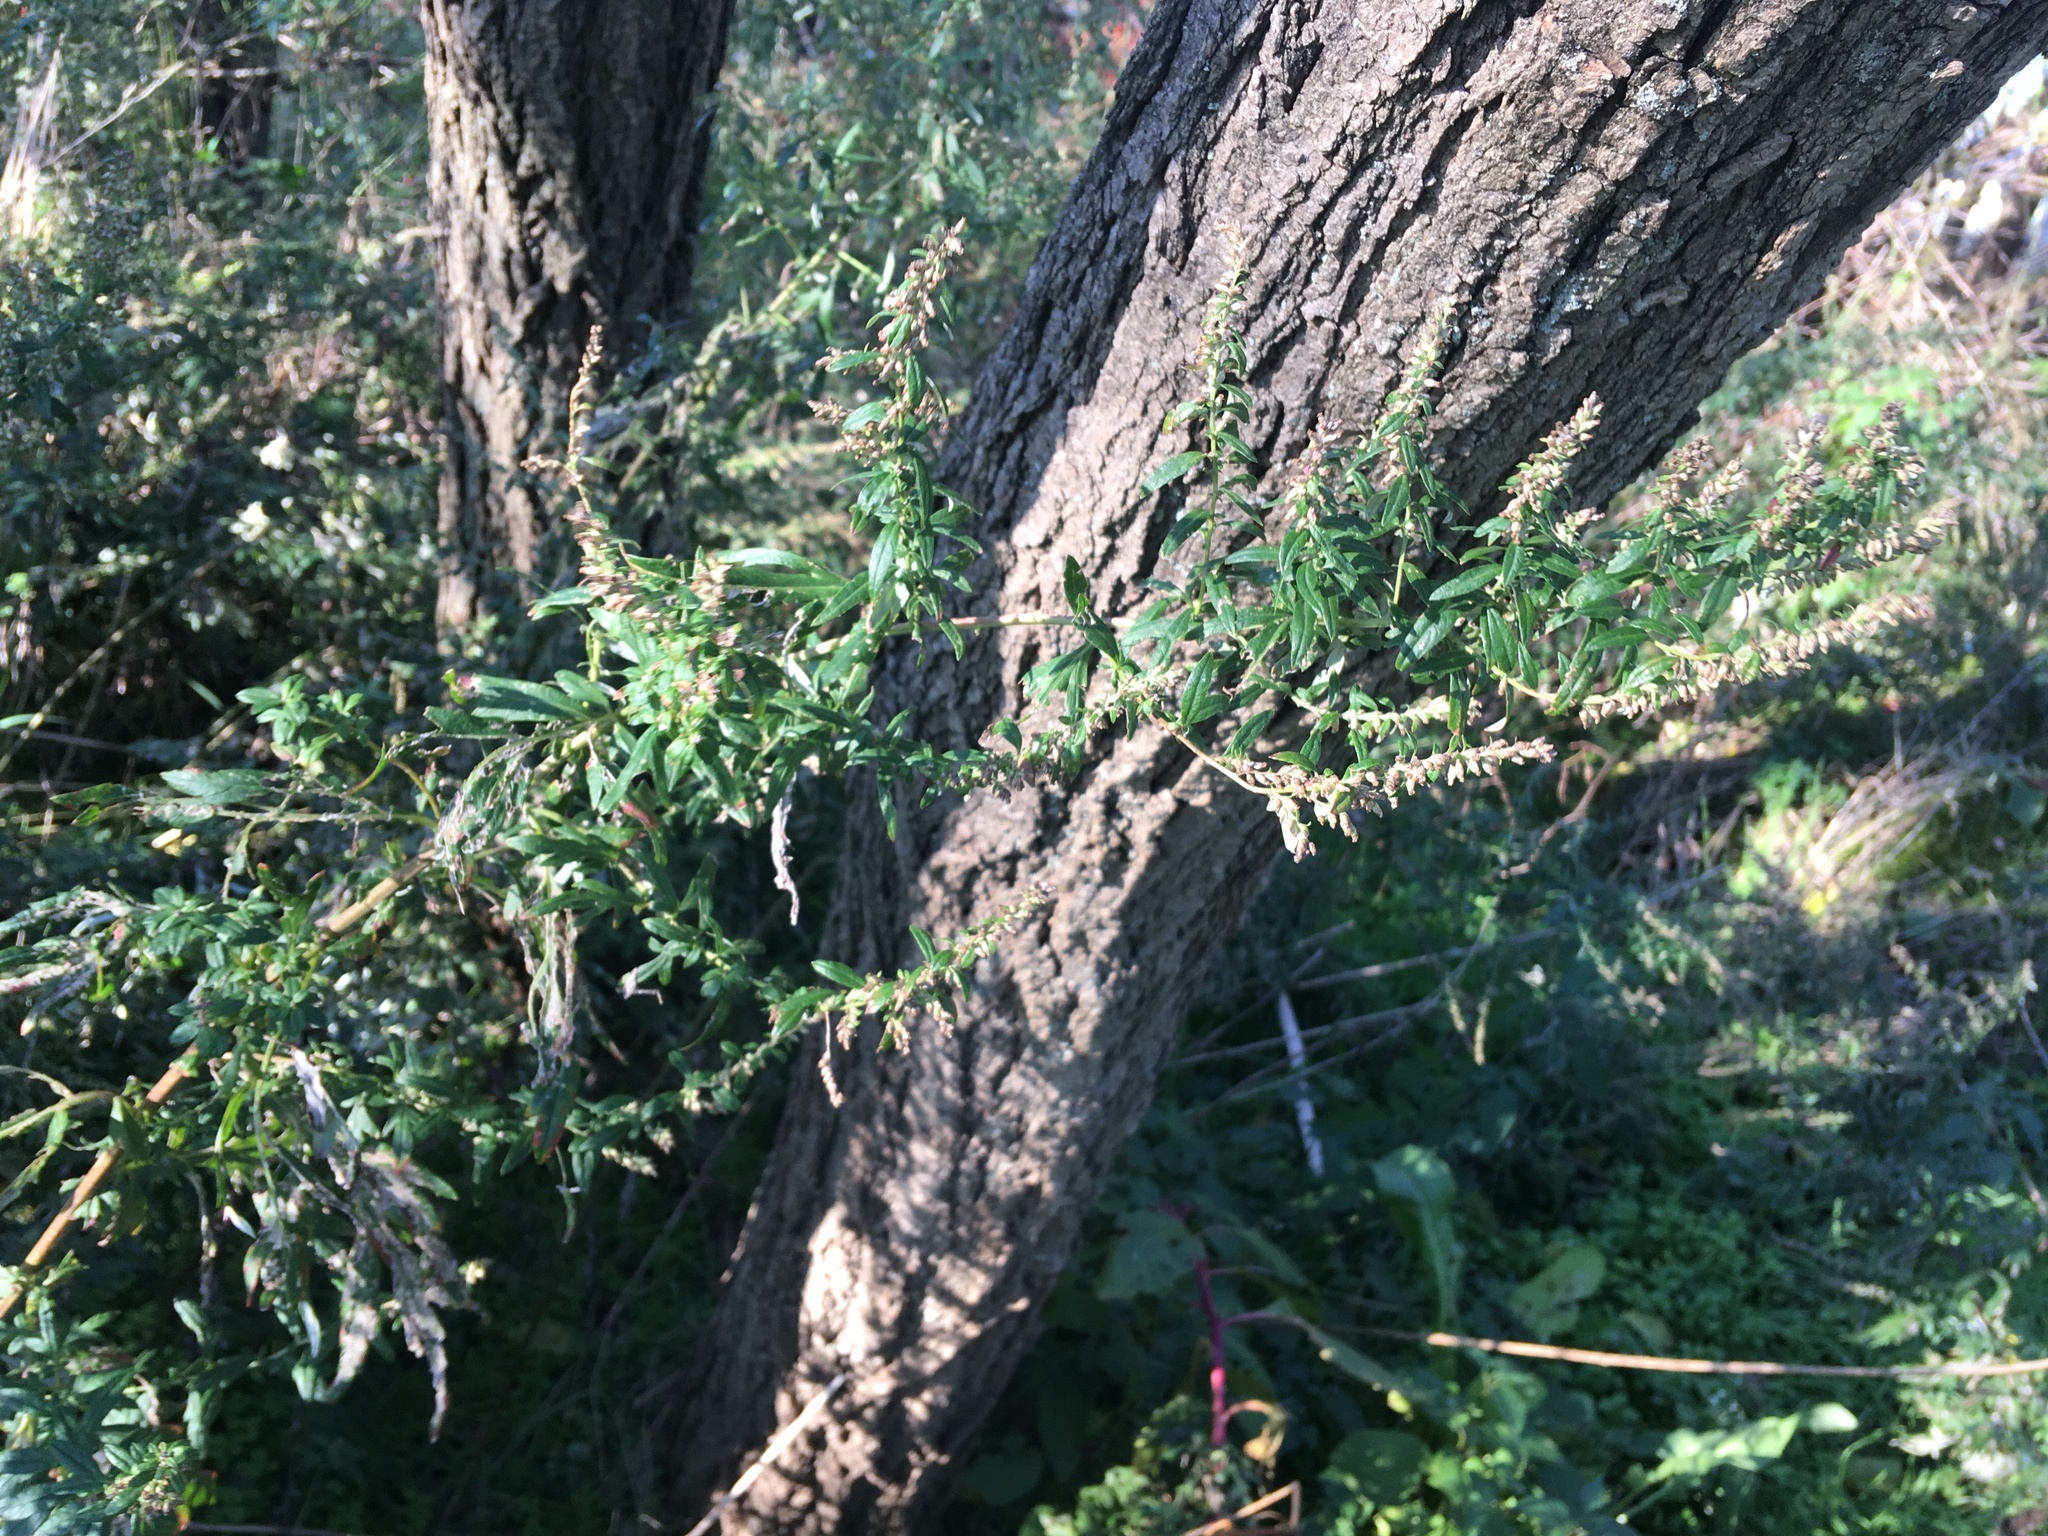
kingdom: Plantae
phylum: Tracheophyta
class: Magnoliopsida
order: Asterales
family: Asteraceae
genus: Artemisia
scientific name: Artemisia vulgaris
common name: Mugwort
